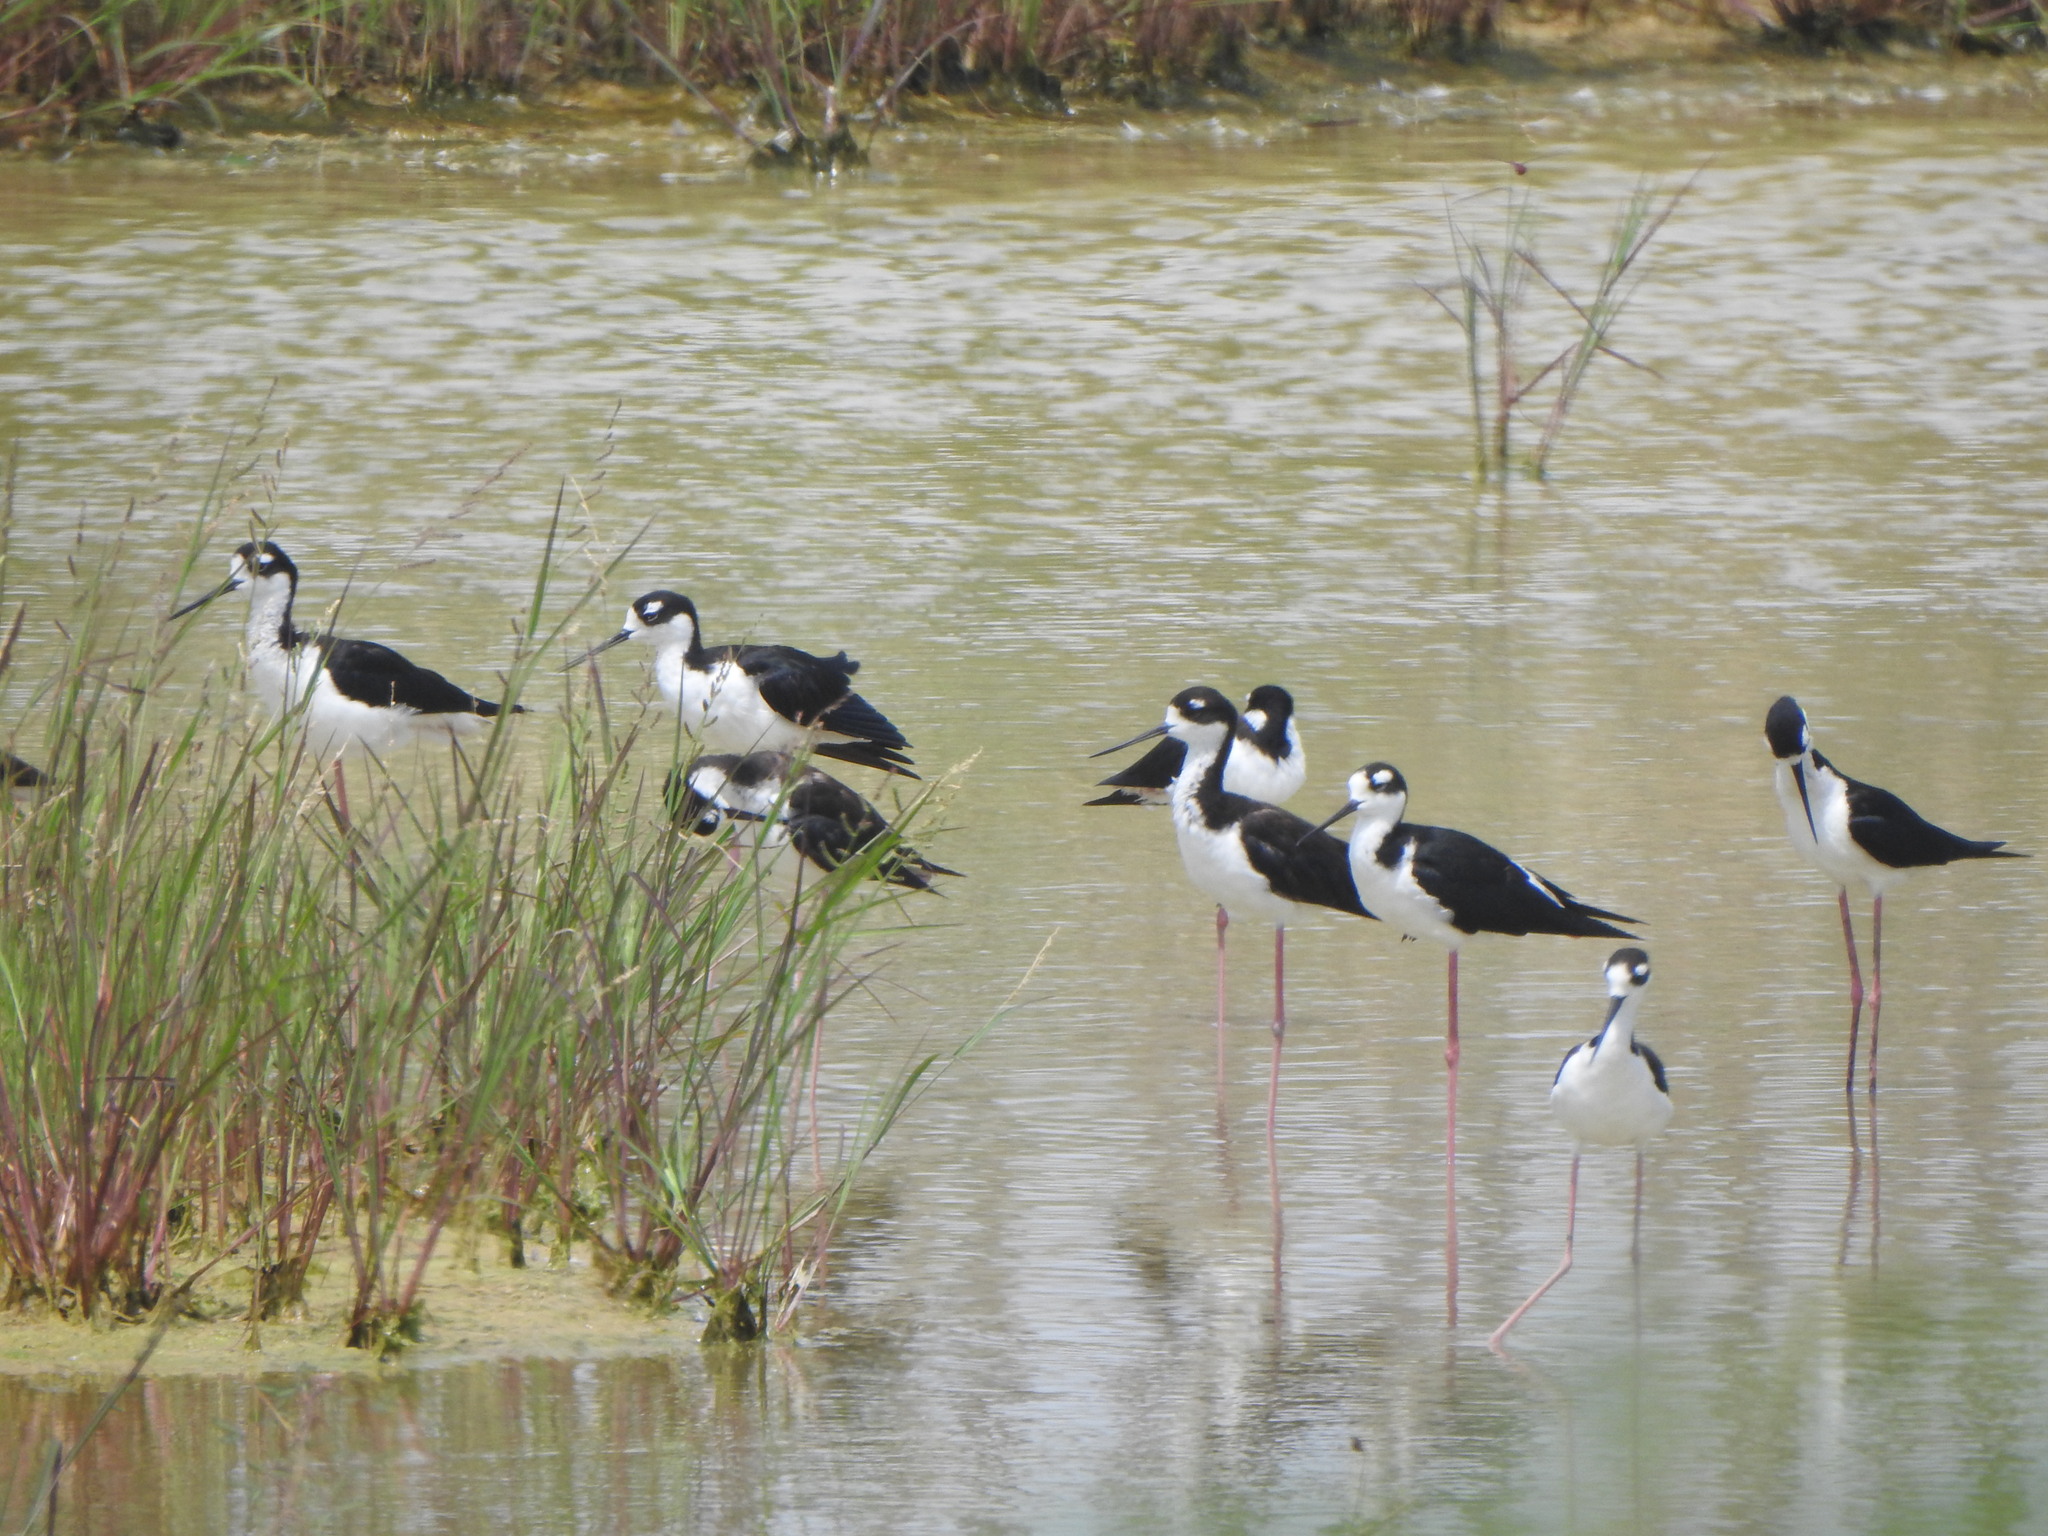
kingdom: Animalia
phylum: Chordata
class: Aves
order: Charadriiformes
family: Recurvirostridae
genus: Himantopus
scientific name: Himantopus mexicanus
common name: Black-necked stilt
